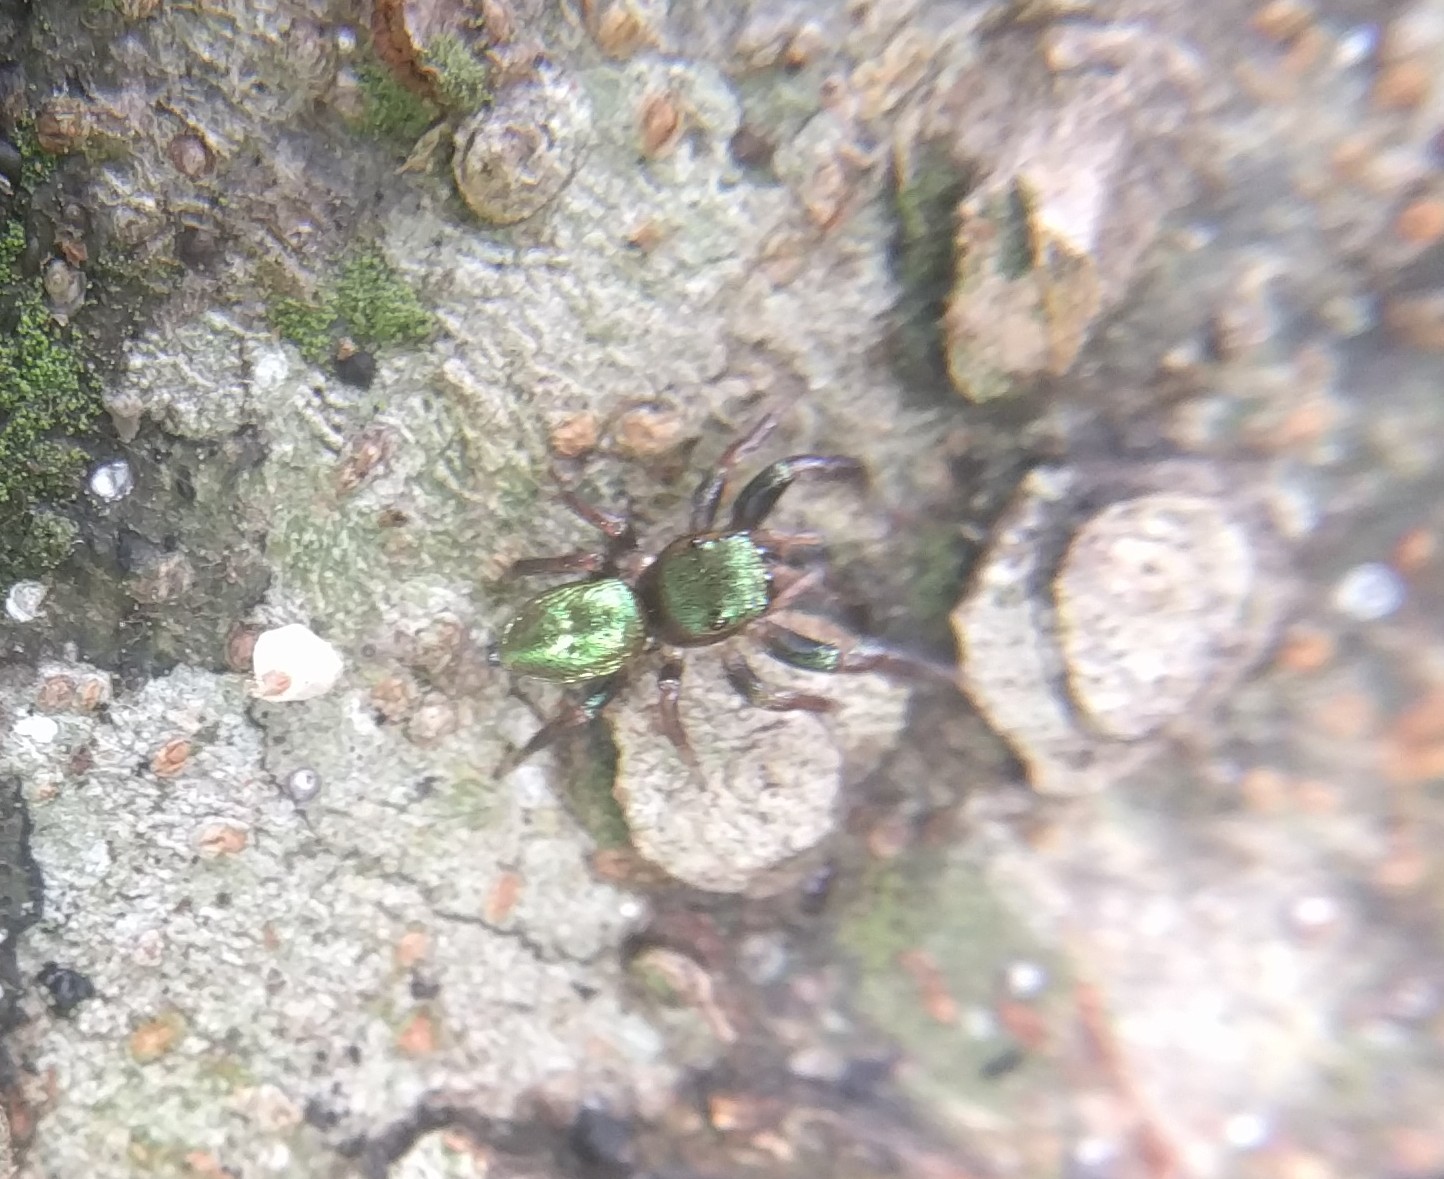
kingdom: Animalia
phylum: Arthropoda
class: Arachnida
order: Araneae
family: Salticidae
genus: Messua
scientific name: Messua limbata
